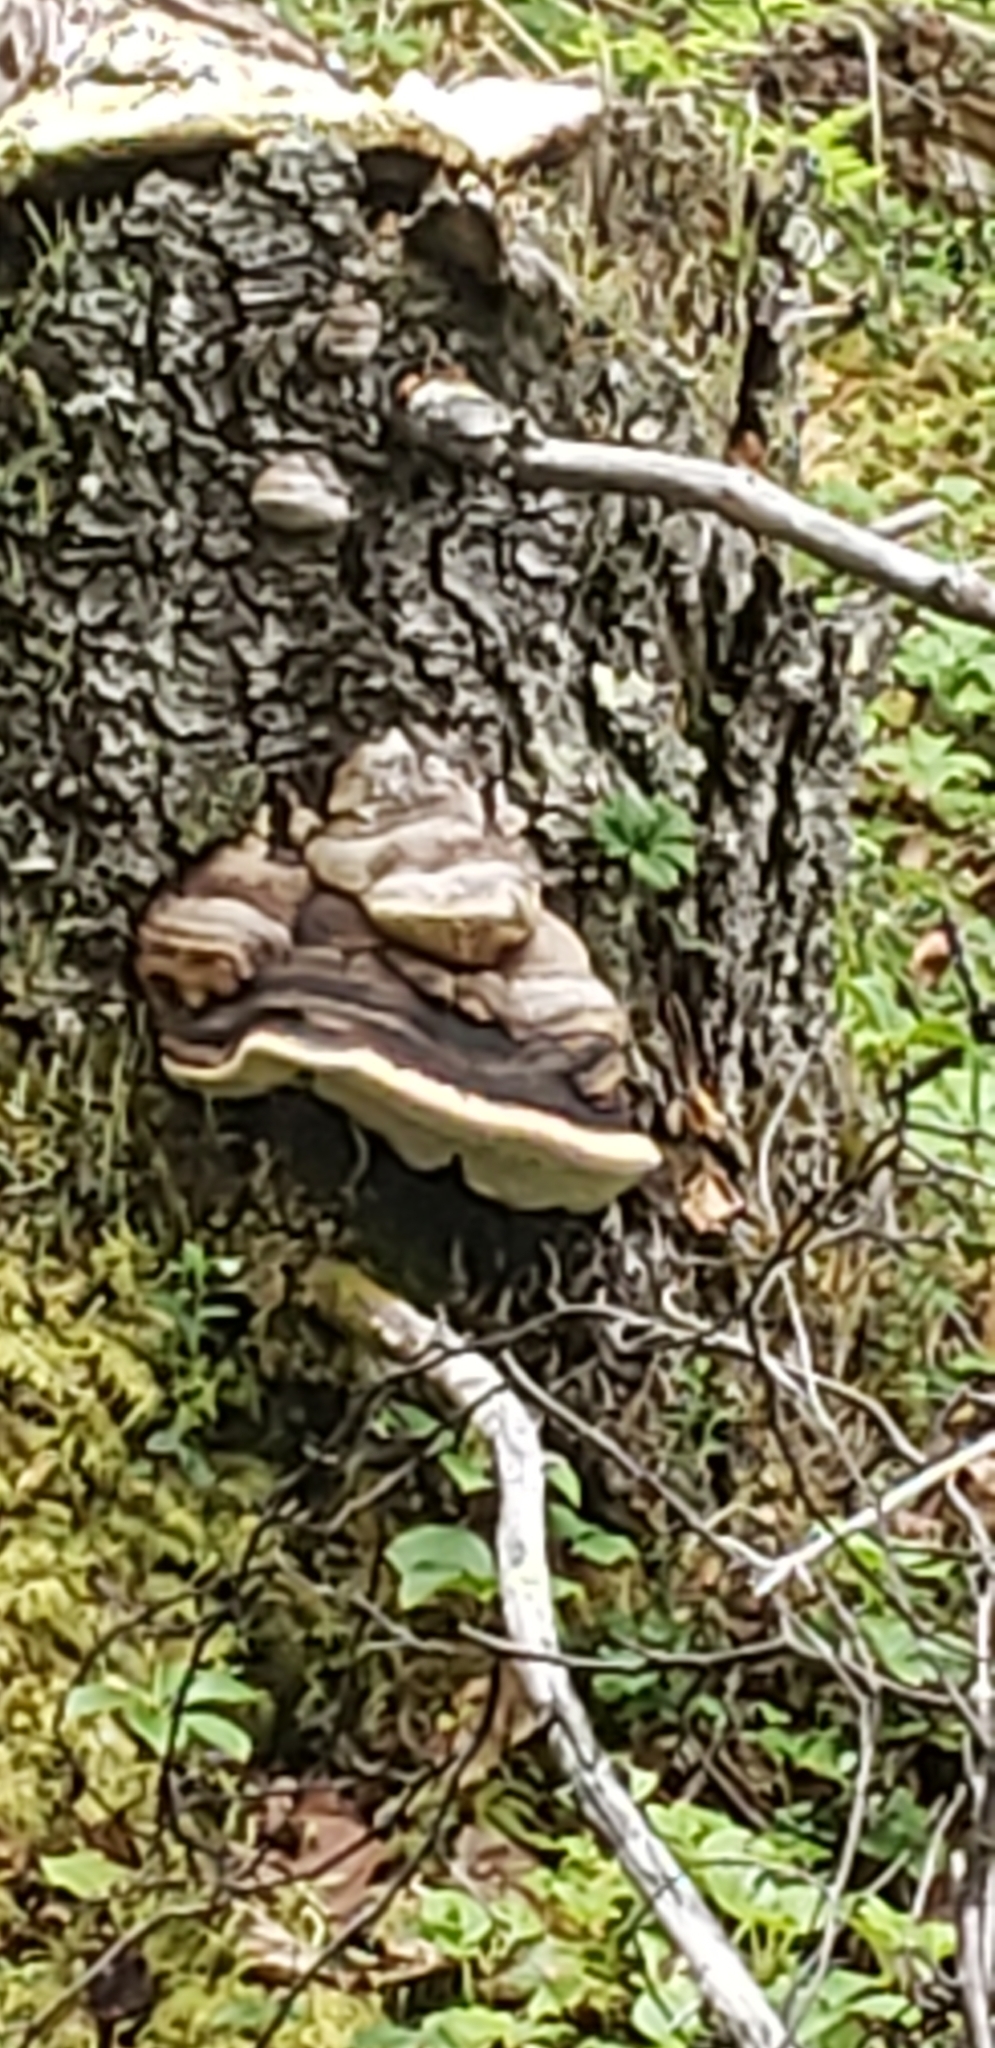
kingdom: Fungi
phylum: Basidiomycota
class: Agaricomycetes
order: Polyporales
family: Fomitopsidaceae
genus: Fomitopsis
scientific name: Fomitopsis ochracea
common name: American brown fomitopsis
